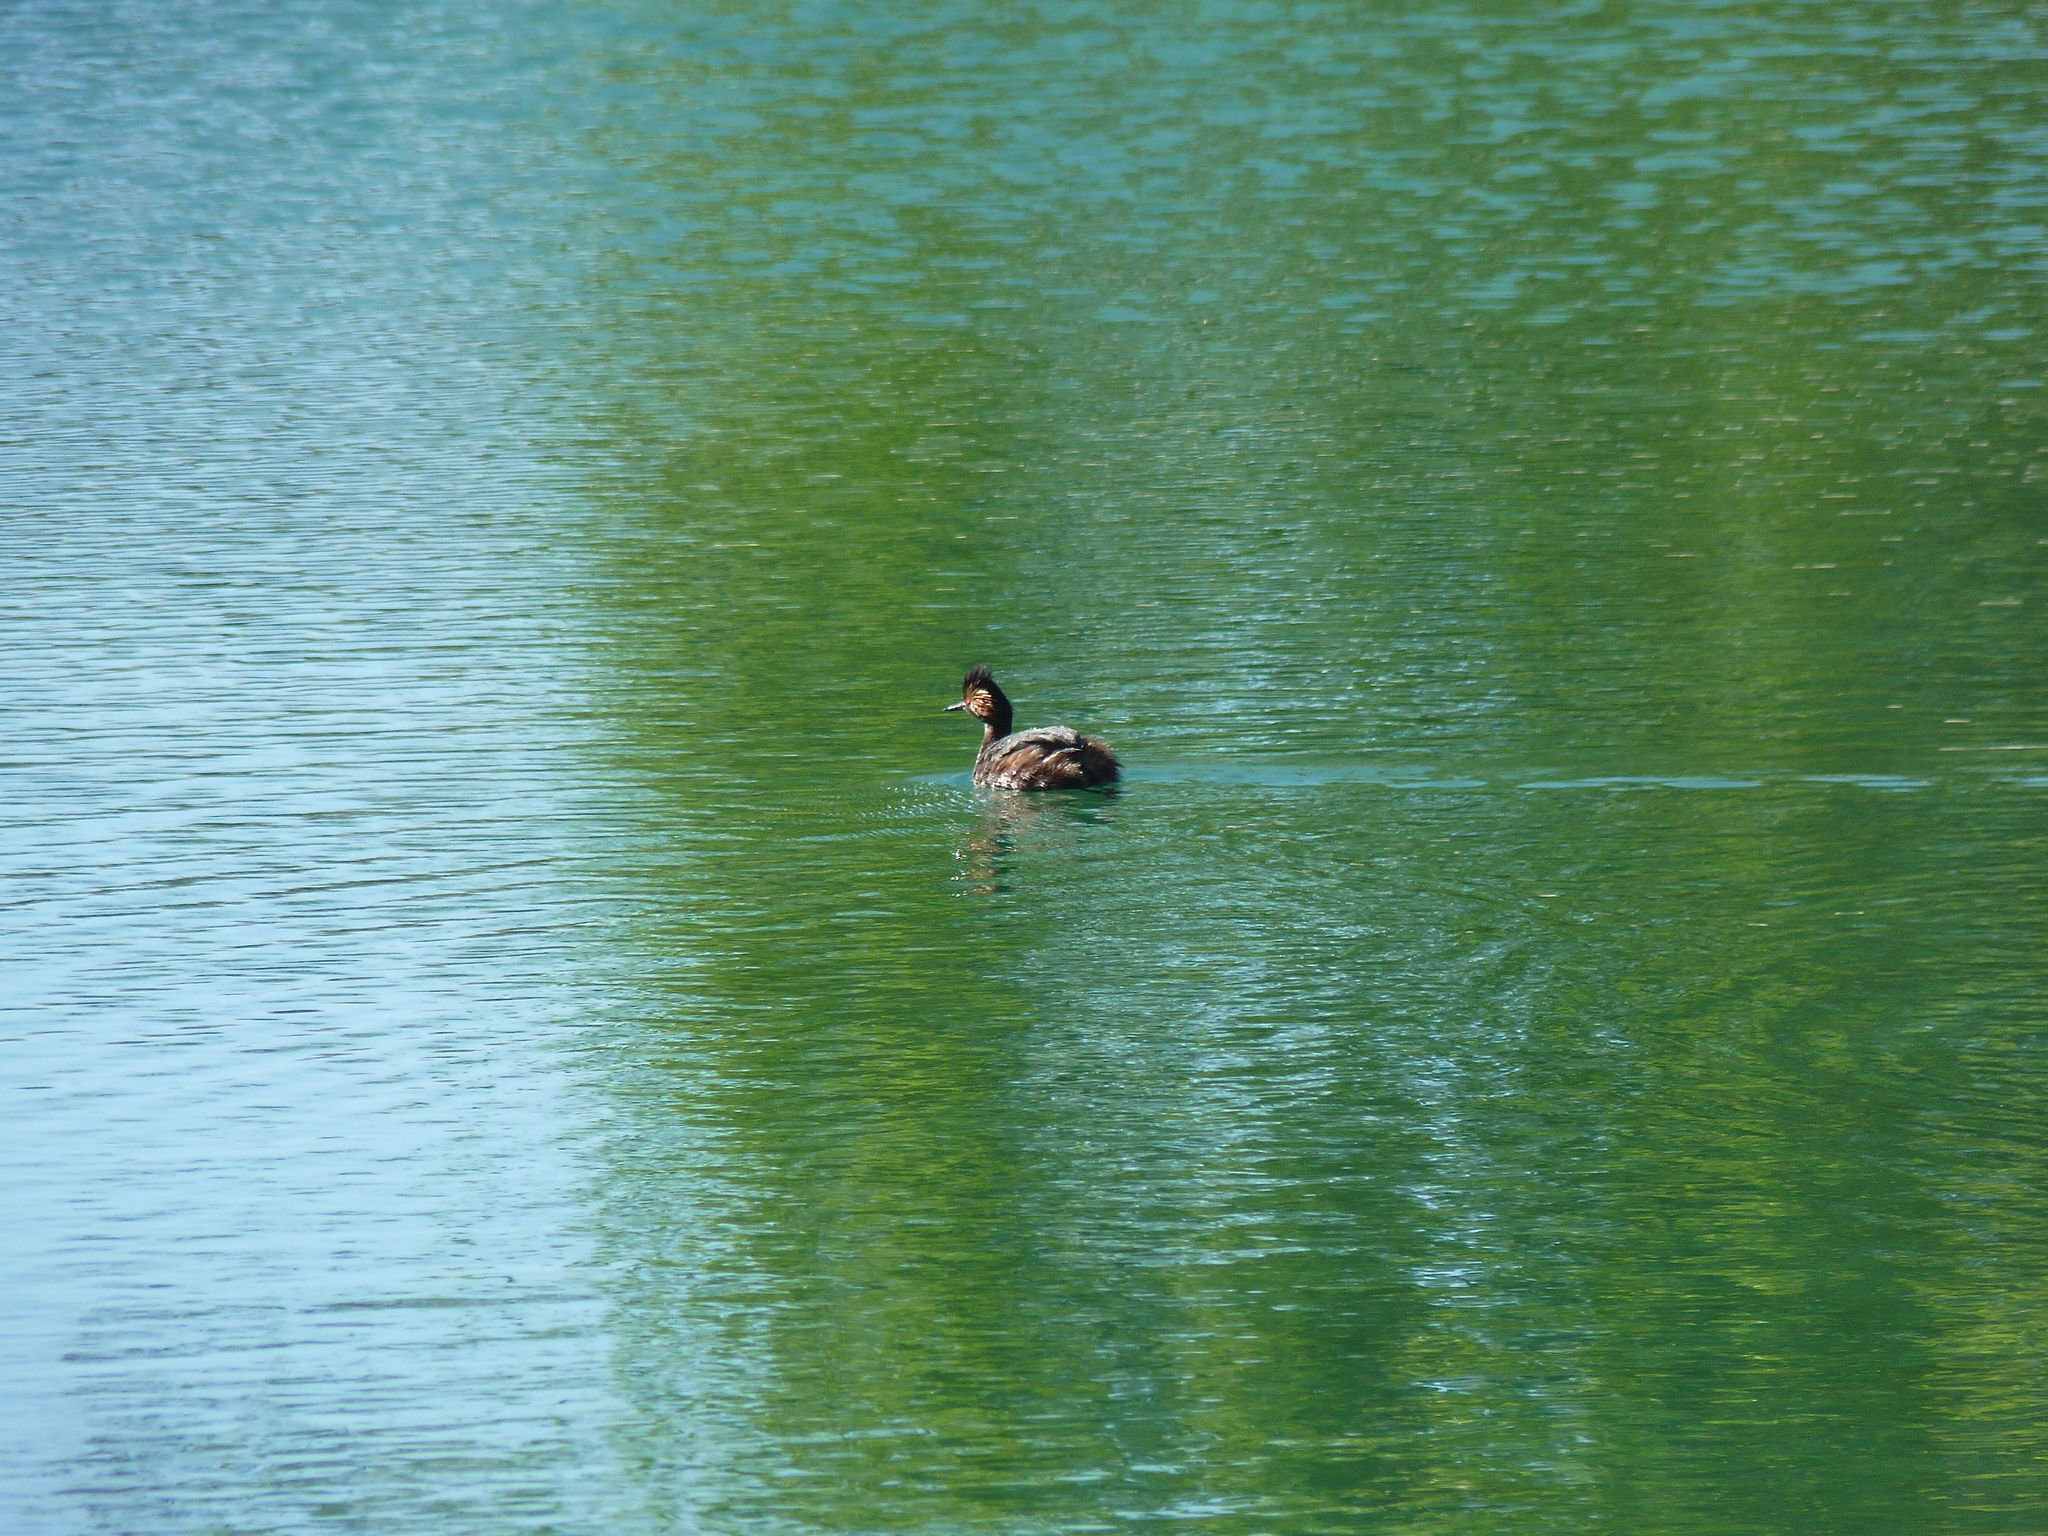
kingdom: Animalia
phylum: Chordata
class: Aves
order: Podicipediformes
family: Podicipedidae
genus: Podiceps
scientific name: Podiceps nigricollis
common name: Black-necked grebe
